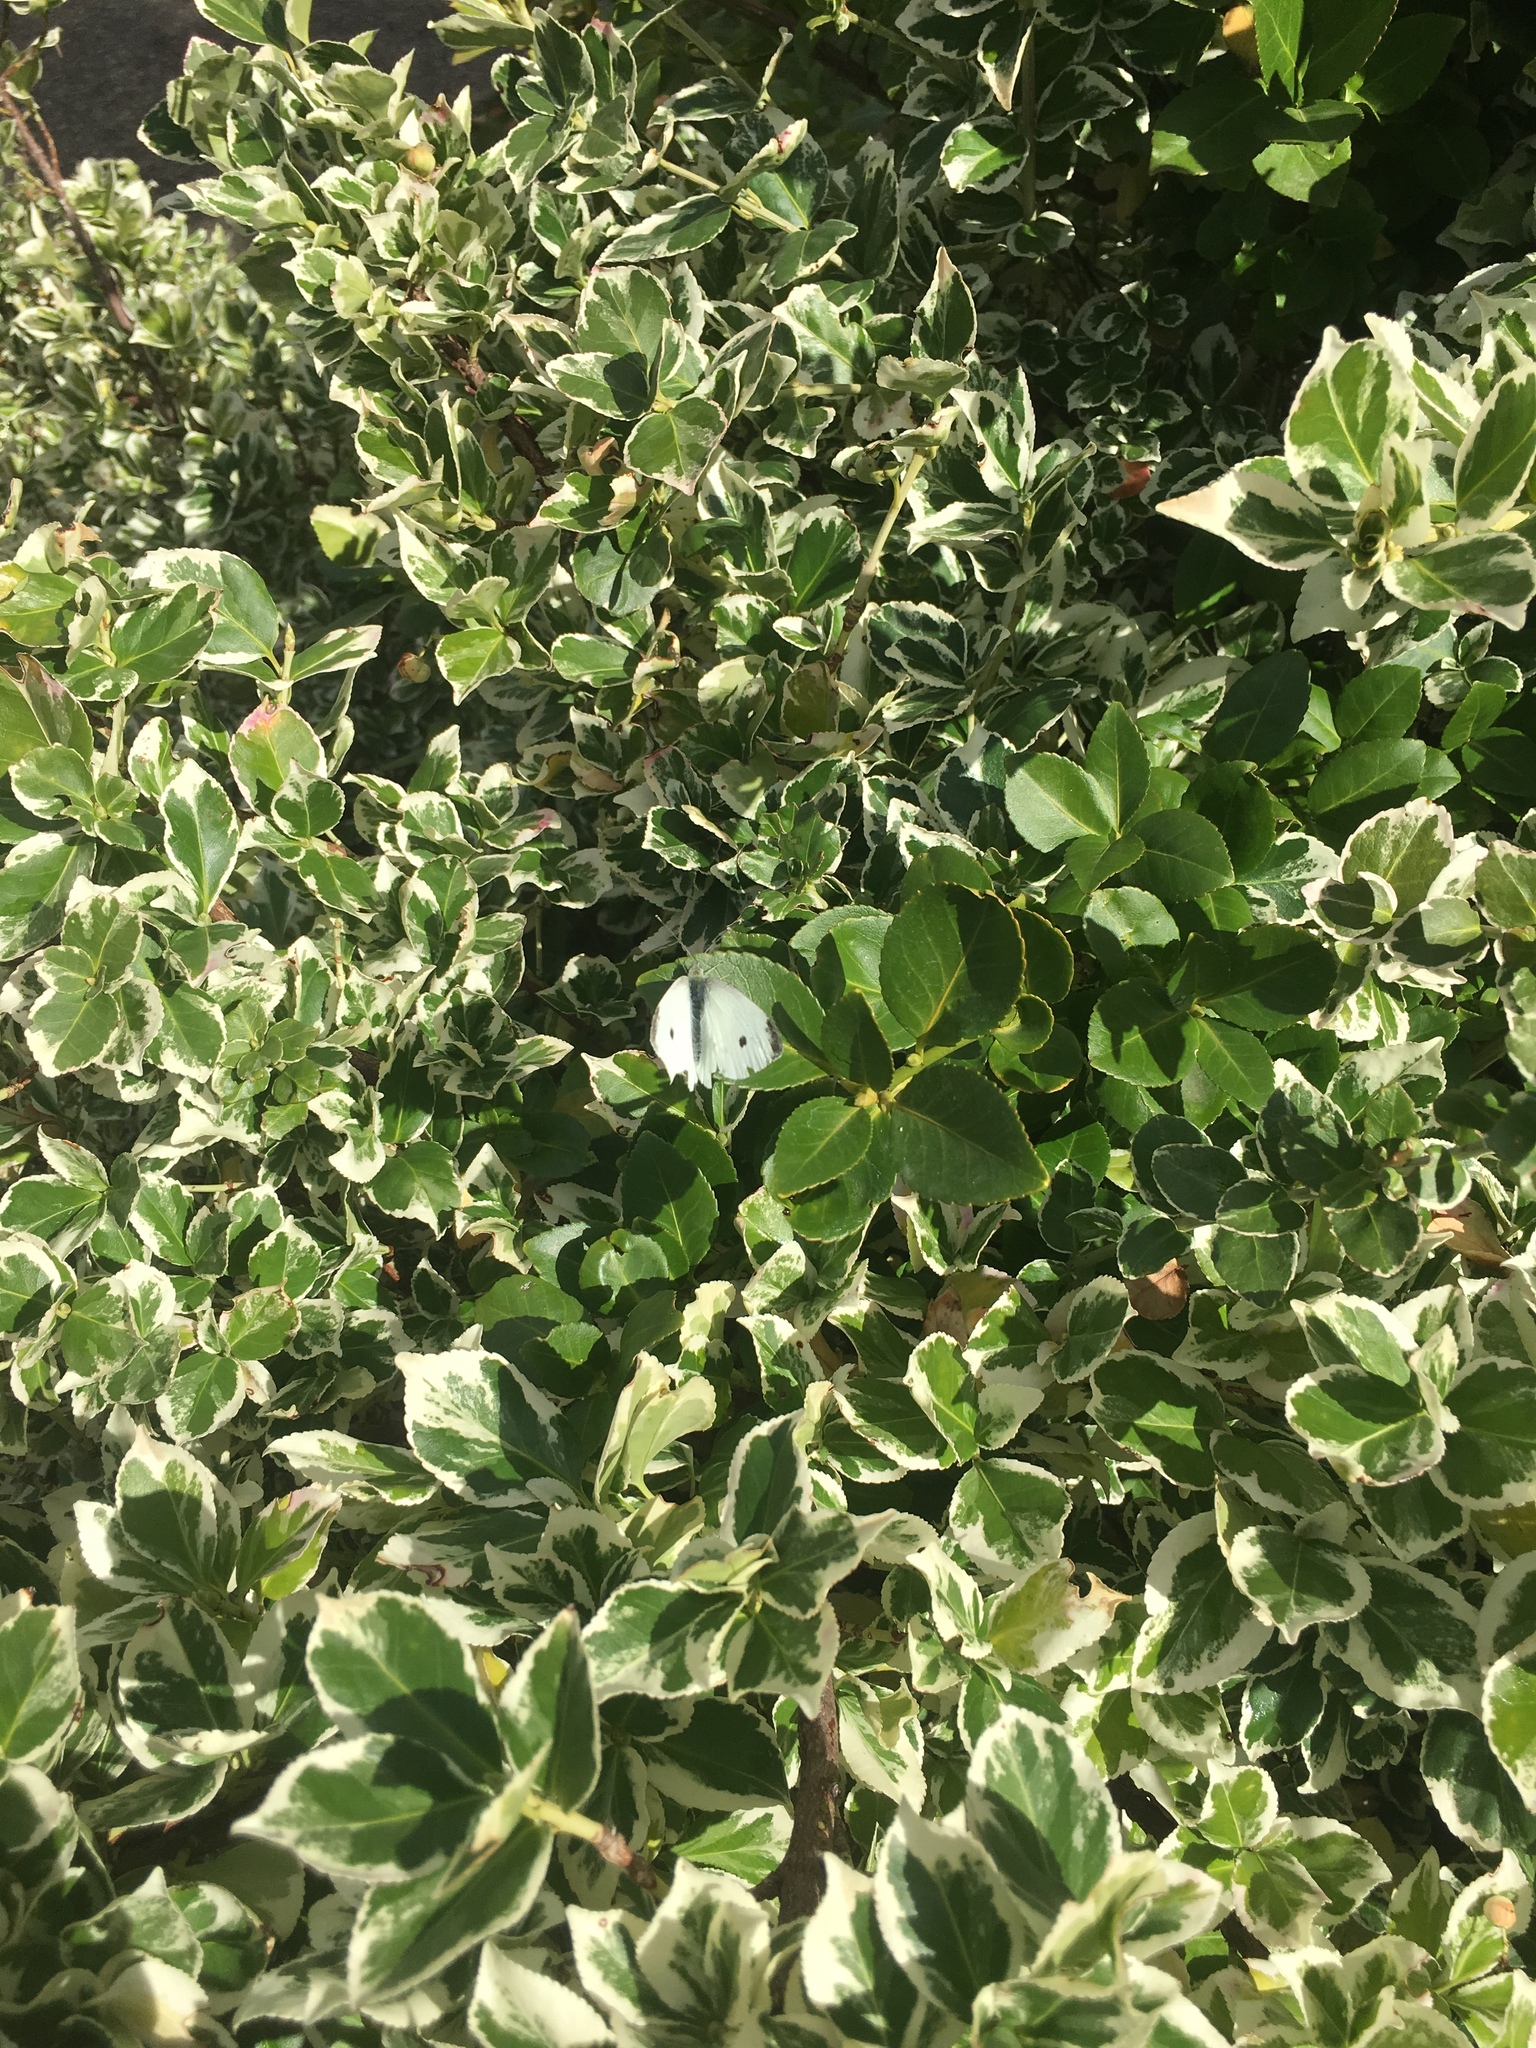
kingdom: Animalia
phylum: Arthropoda
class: Insecta
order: Lepidoptera
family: Pieridae
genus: Pieris
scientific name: Pieris rapae
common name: Small white
